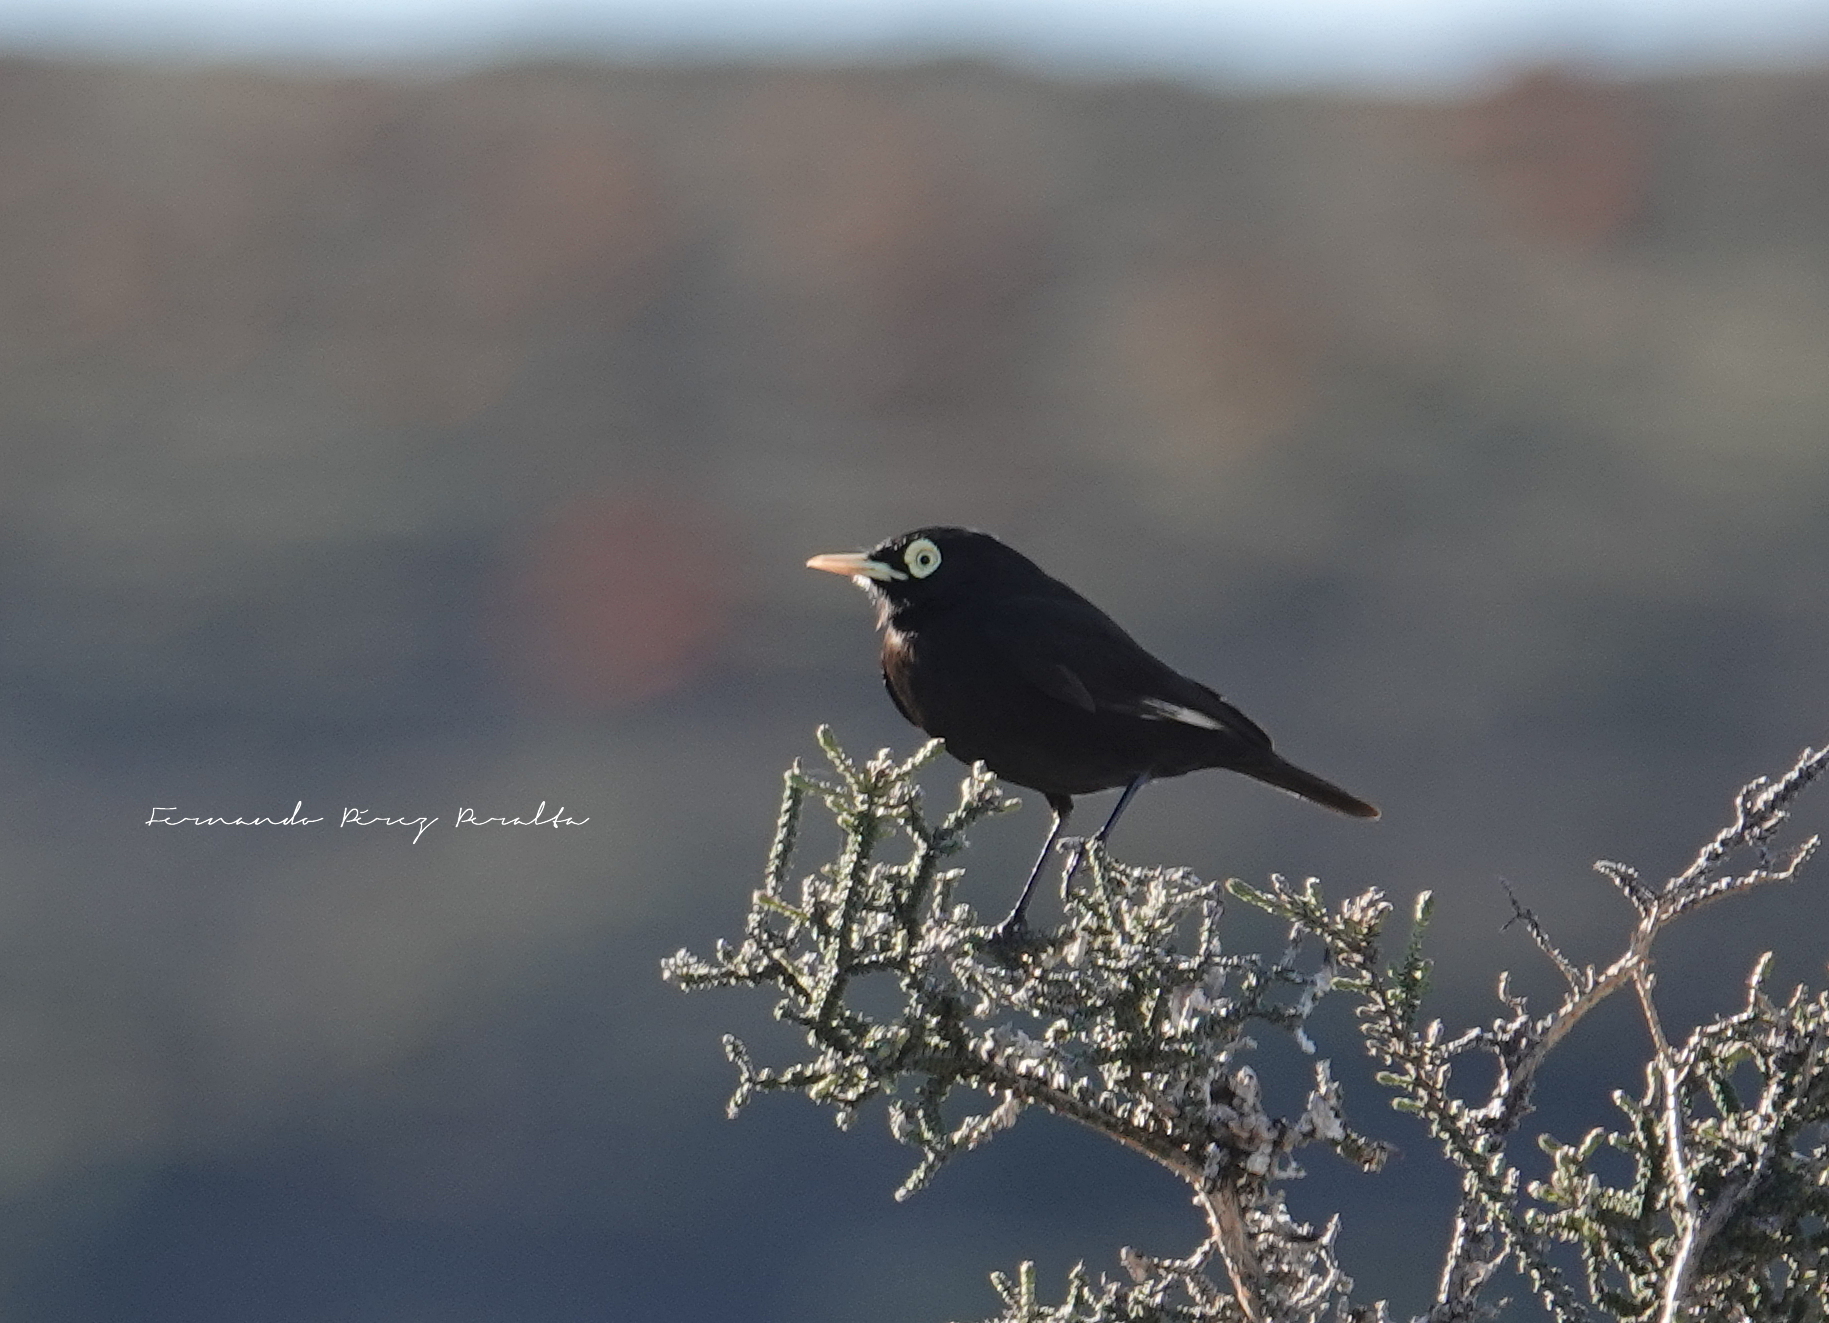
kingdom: Animalia
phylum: Chordata
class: Aves
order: Passeriformes
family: Tyrannidae
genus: Hymenops
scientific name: Hymenops perspicillatus
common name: Spectacled tyrant
